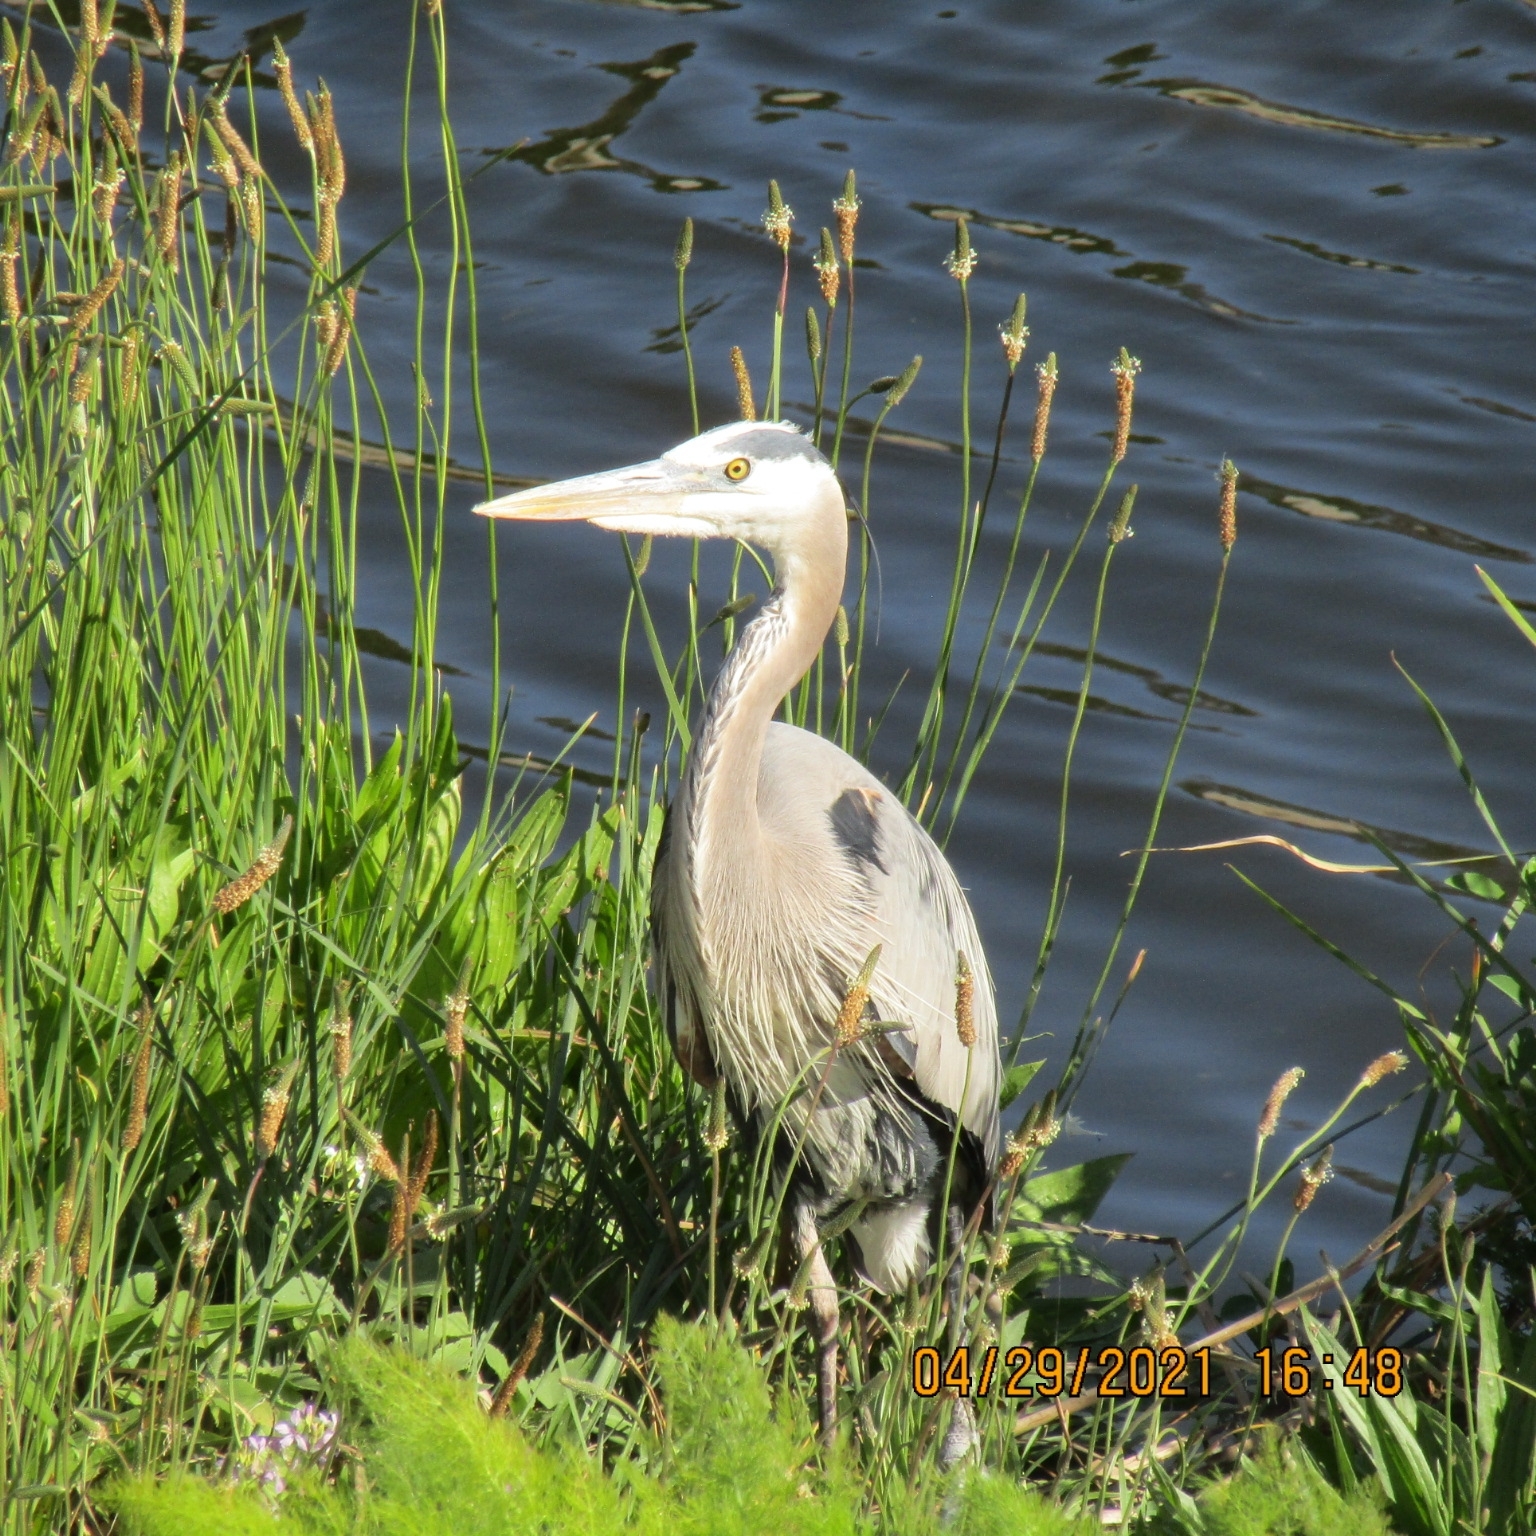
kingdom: Animalia
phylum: Chordata
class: Aves
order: Pelecaniformes
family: Ardeidae
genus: Ardea
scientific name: Ardea herodias
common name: Great blue heron
